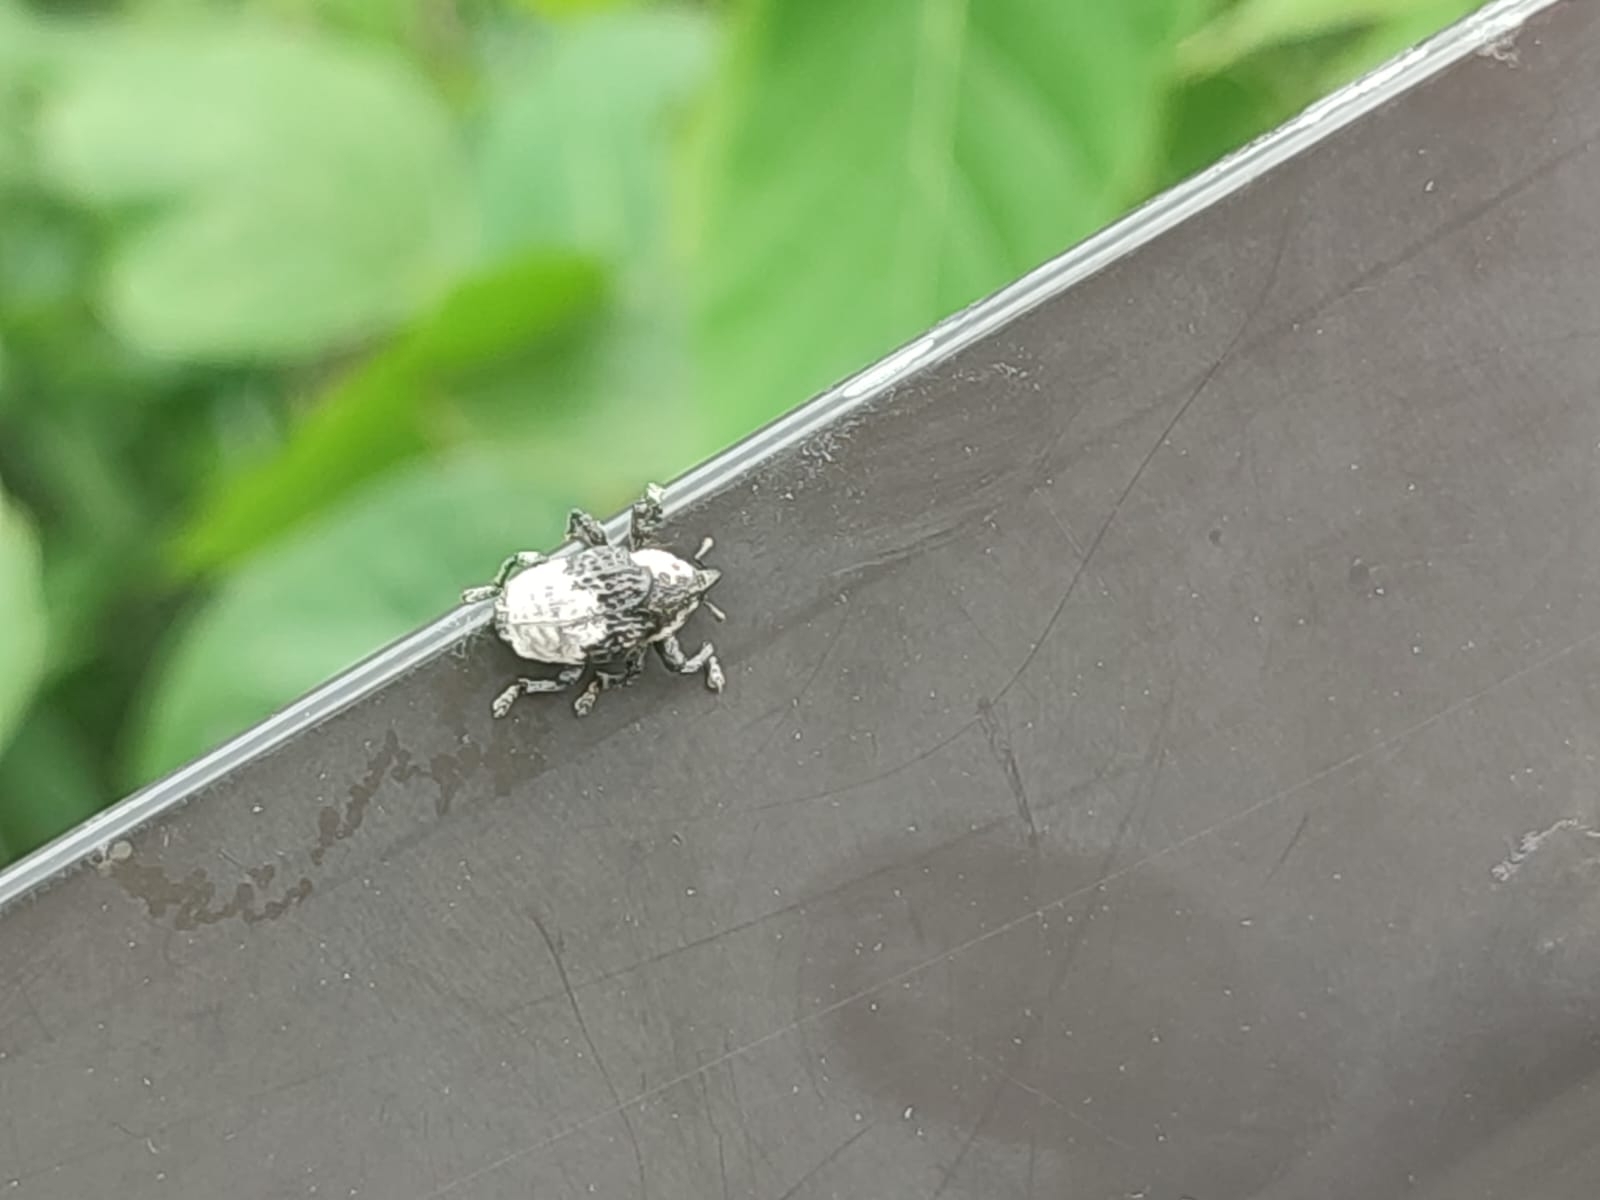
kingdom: Animalia
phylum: Arthropoda
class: Insecta
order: Coleoptera
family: Curculionidae
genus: Alcides
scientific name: Alcides trifidus
